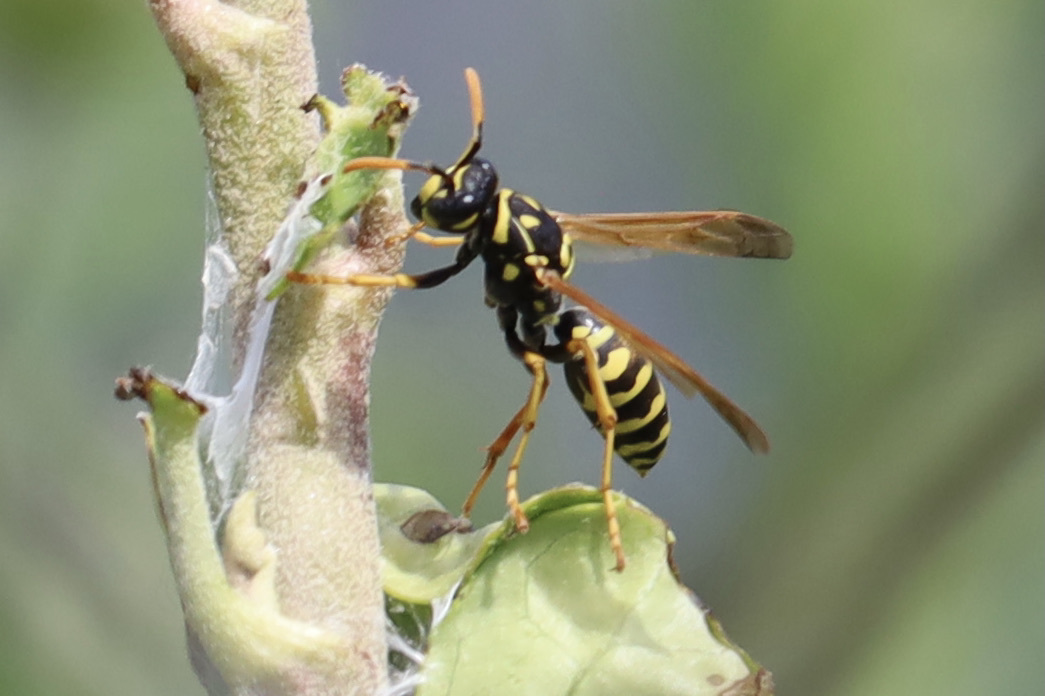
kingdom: Animalia
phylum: Arthropoda
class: Insecta
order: Hymenoptera
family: Eumenidae
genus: Polistes
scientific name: Polistes dominula
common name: Paper wasp
